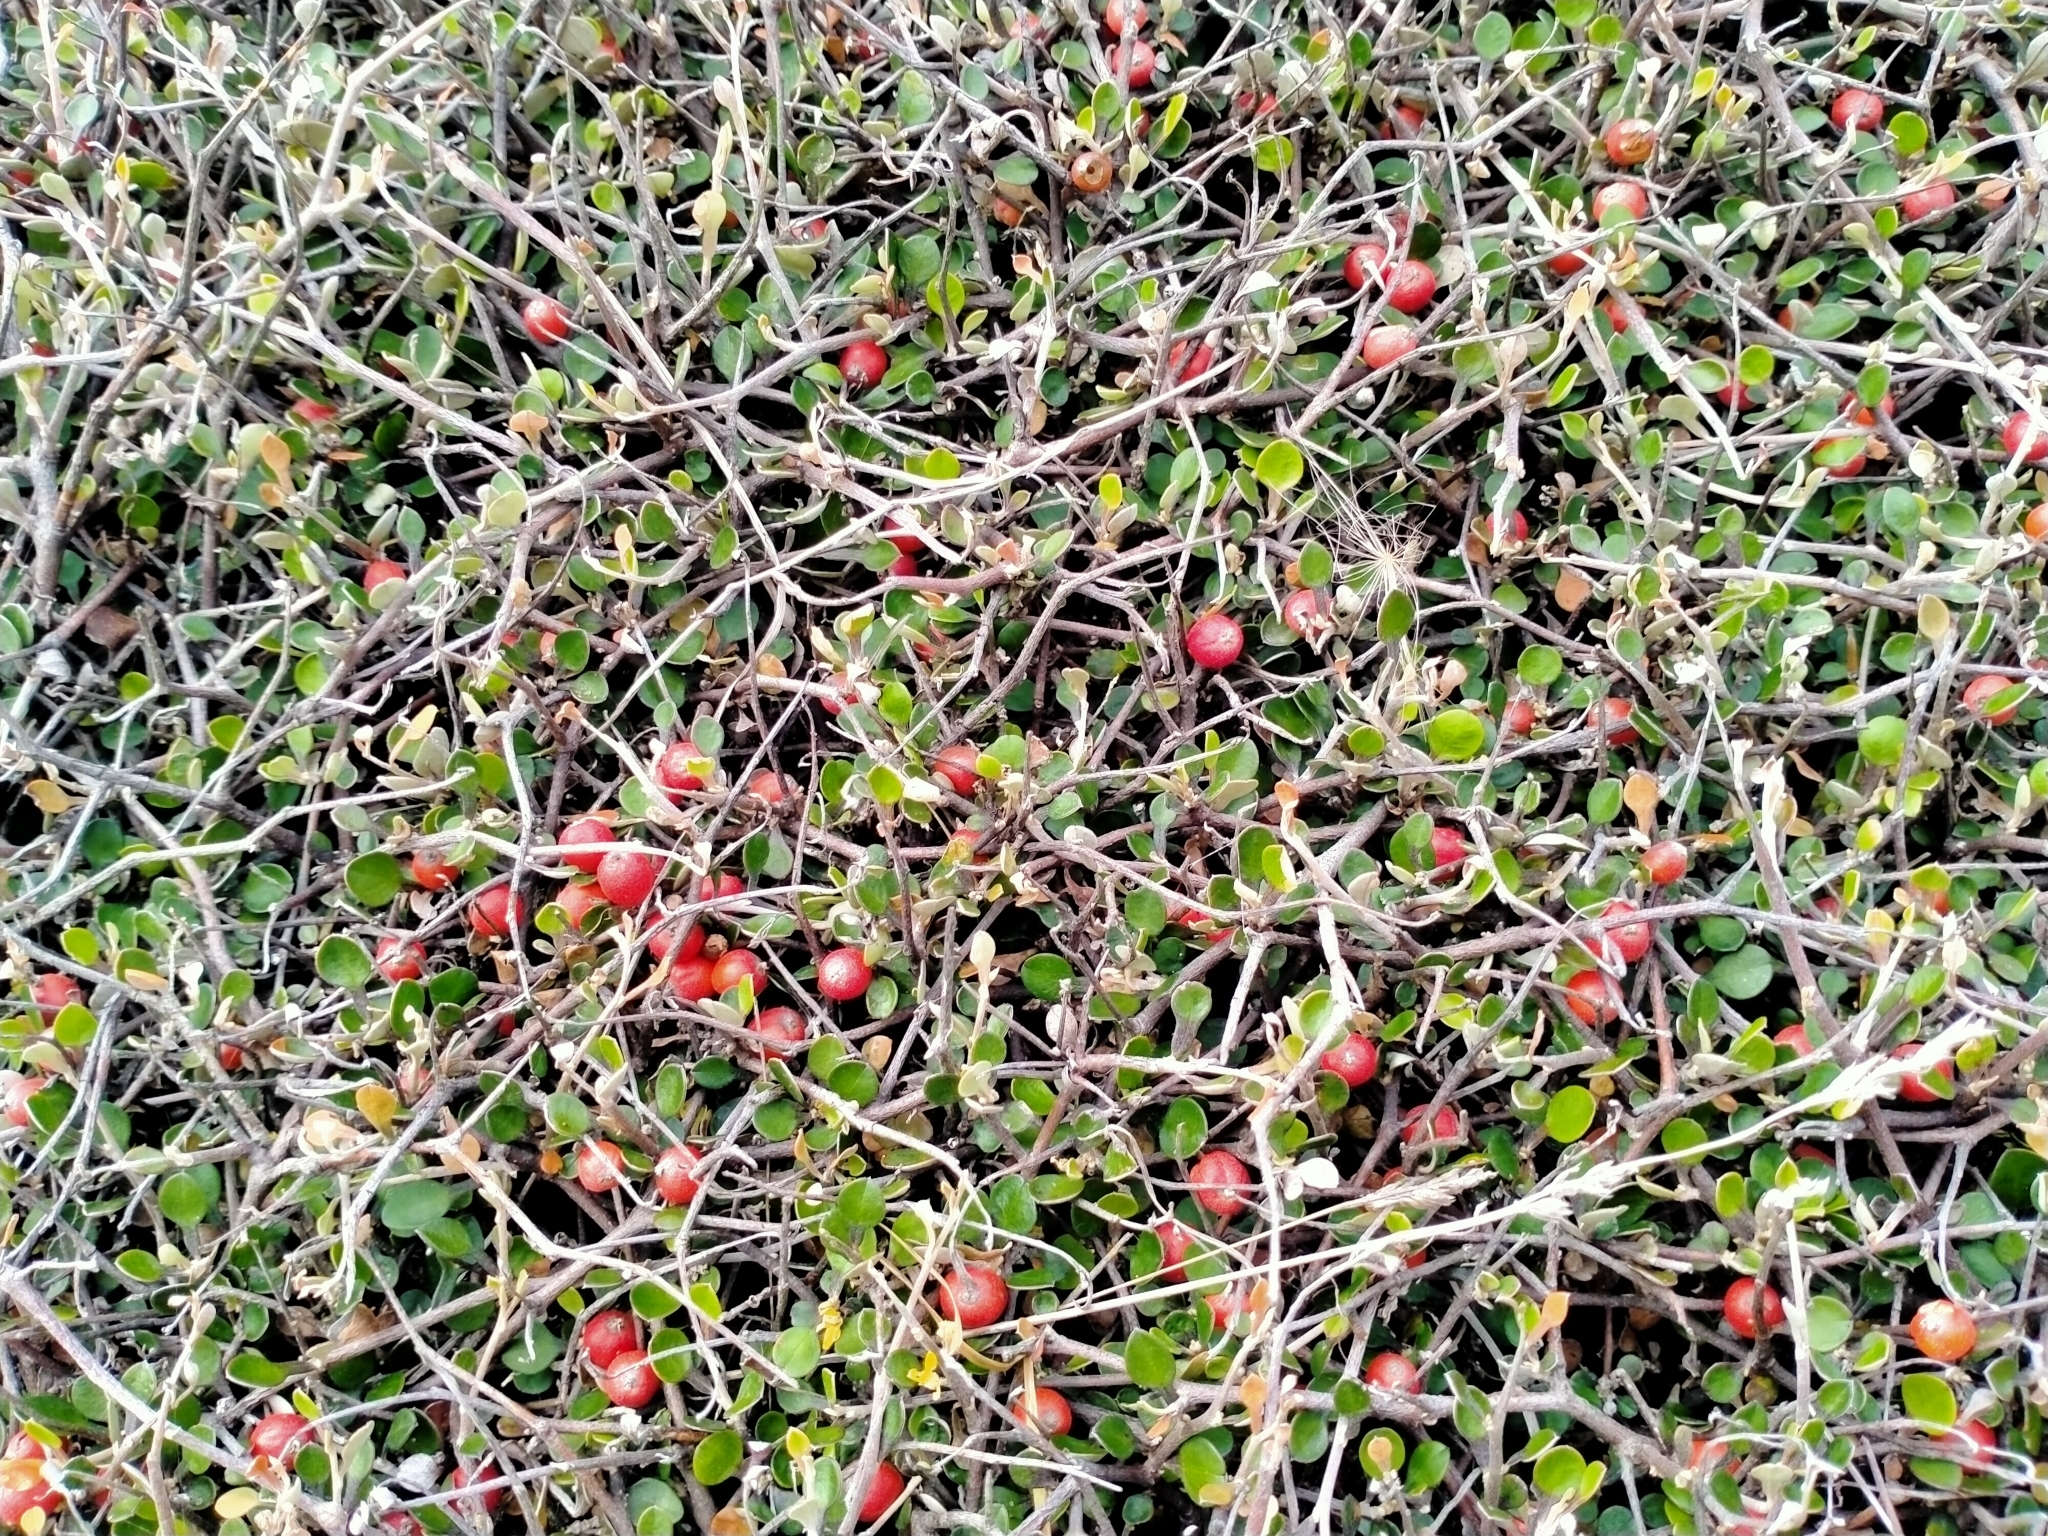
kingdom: Plantae
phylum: Tracheophyta
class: Magnoliopsida
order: Asterales
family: Argophyllaceae
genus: Corokia
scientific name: Corokia cotoneaster
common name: Wire nettingbush
